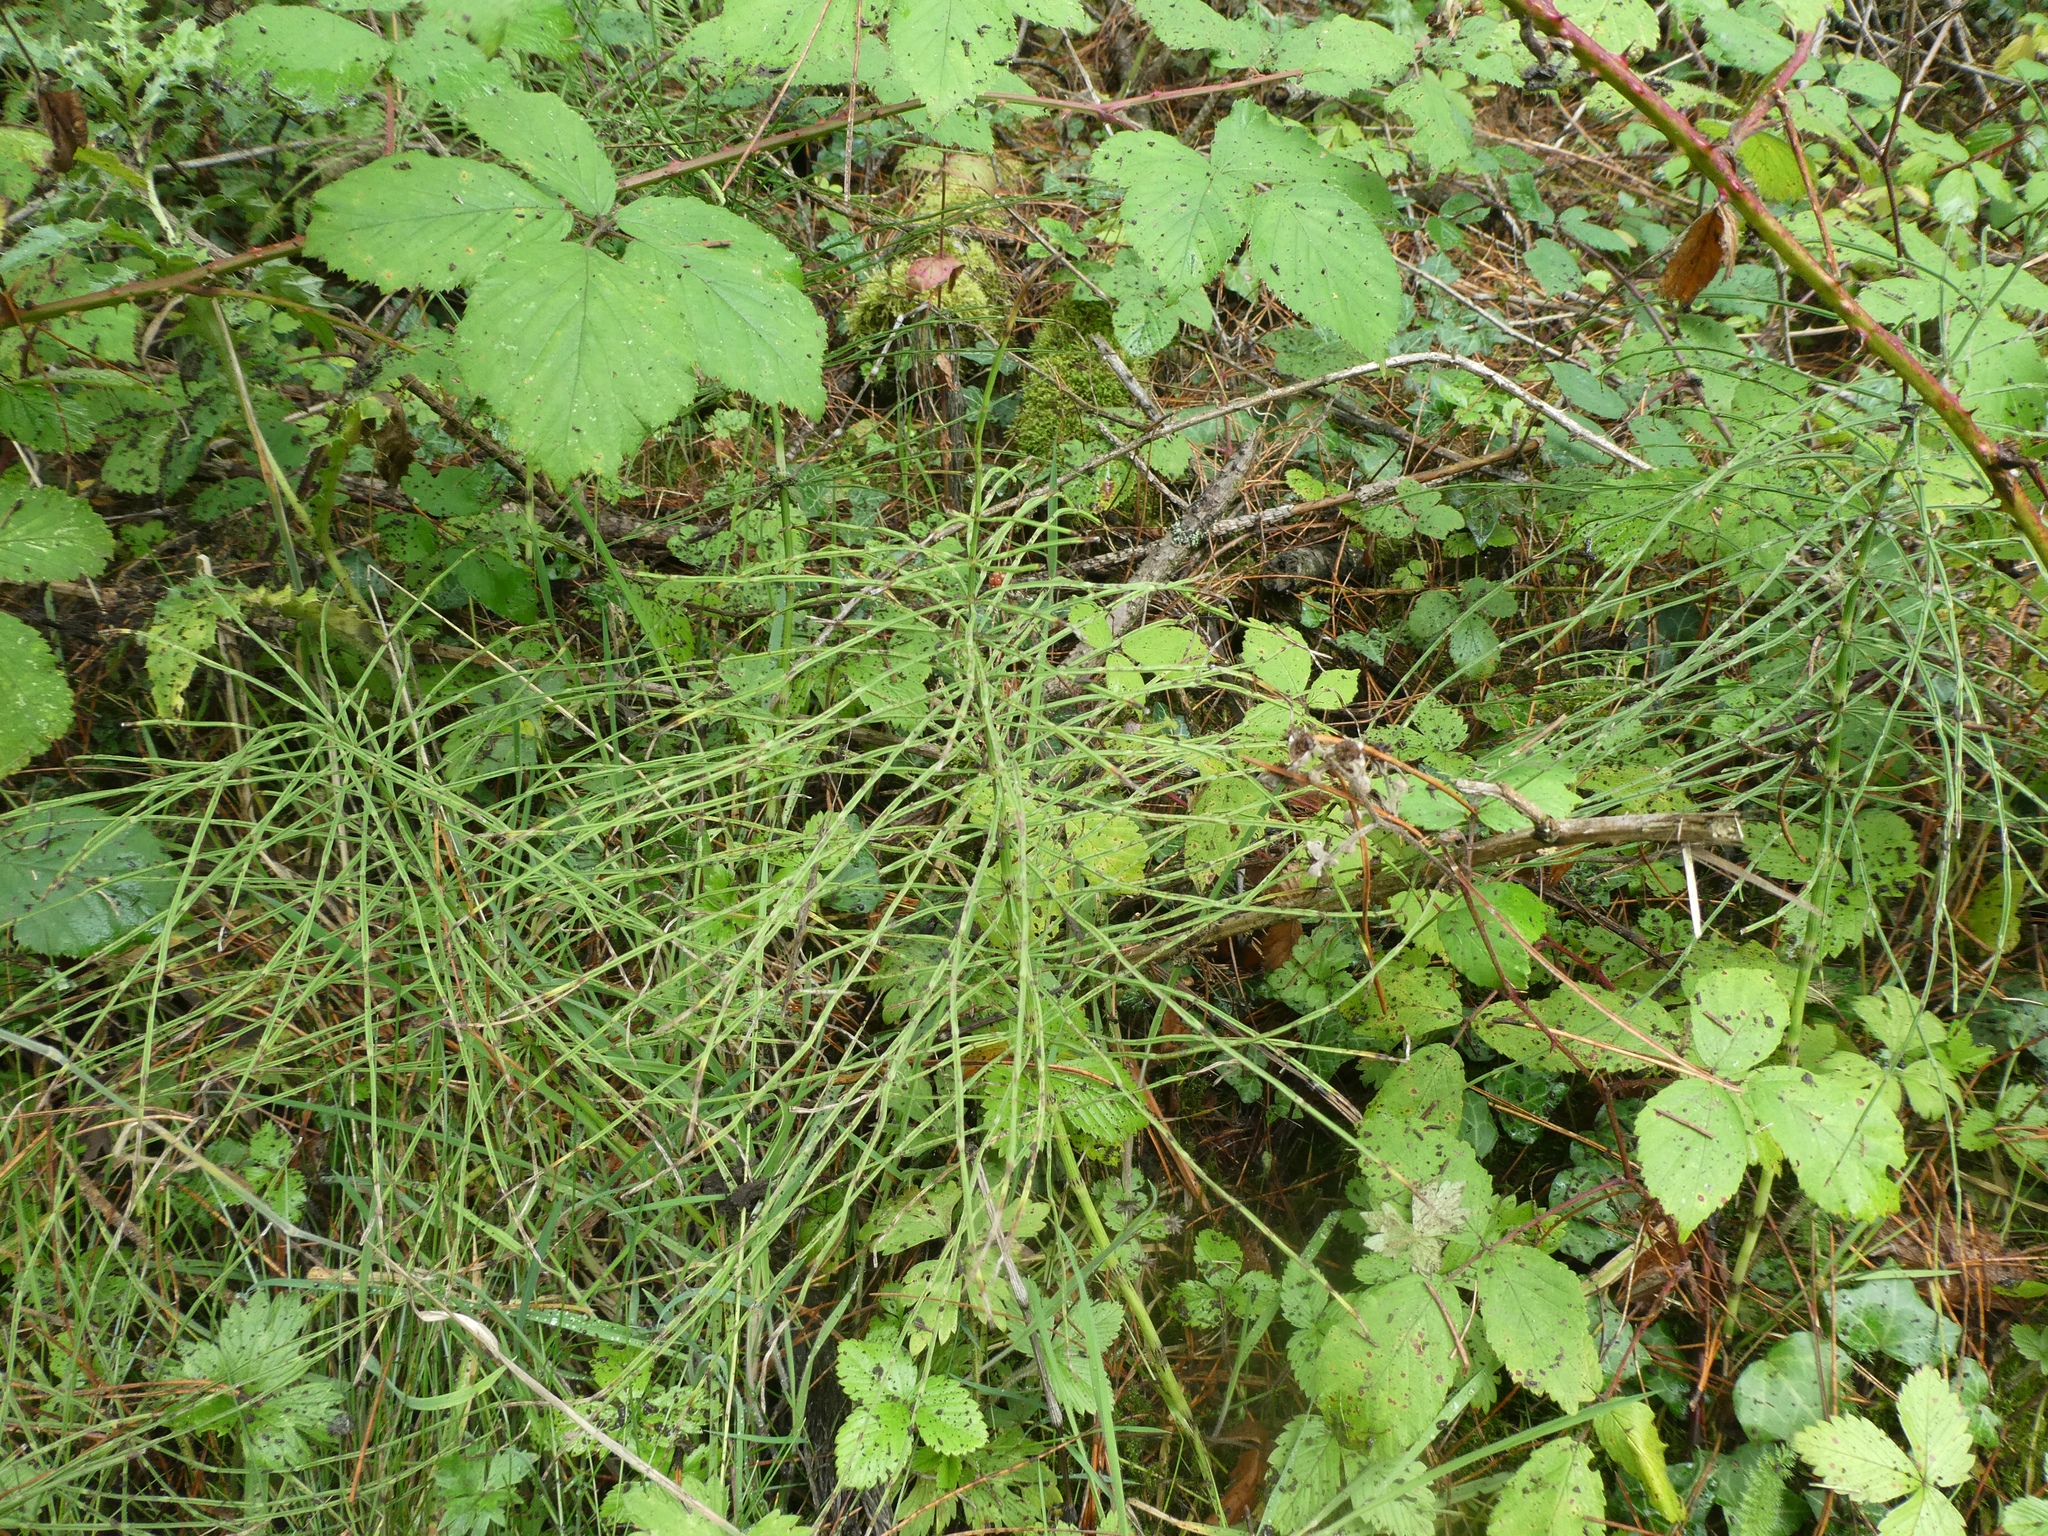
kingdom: Plantae
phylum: Tracheophyta
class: Polypodiopsida
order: Equisetales
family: Equisetaceae
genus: Equisetum
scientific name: Equisetum arvense
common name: Field horsetail
